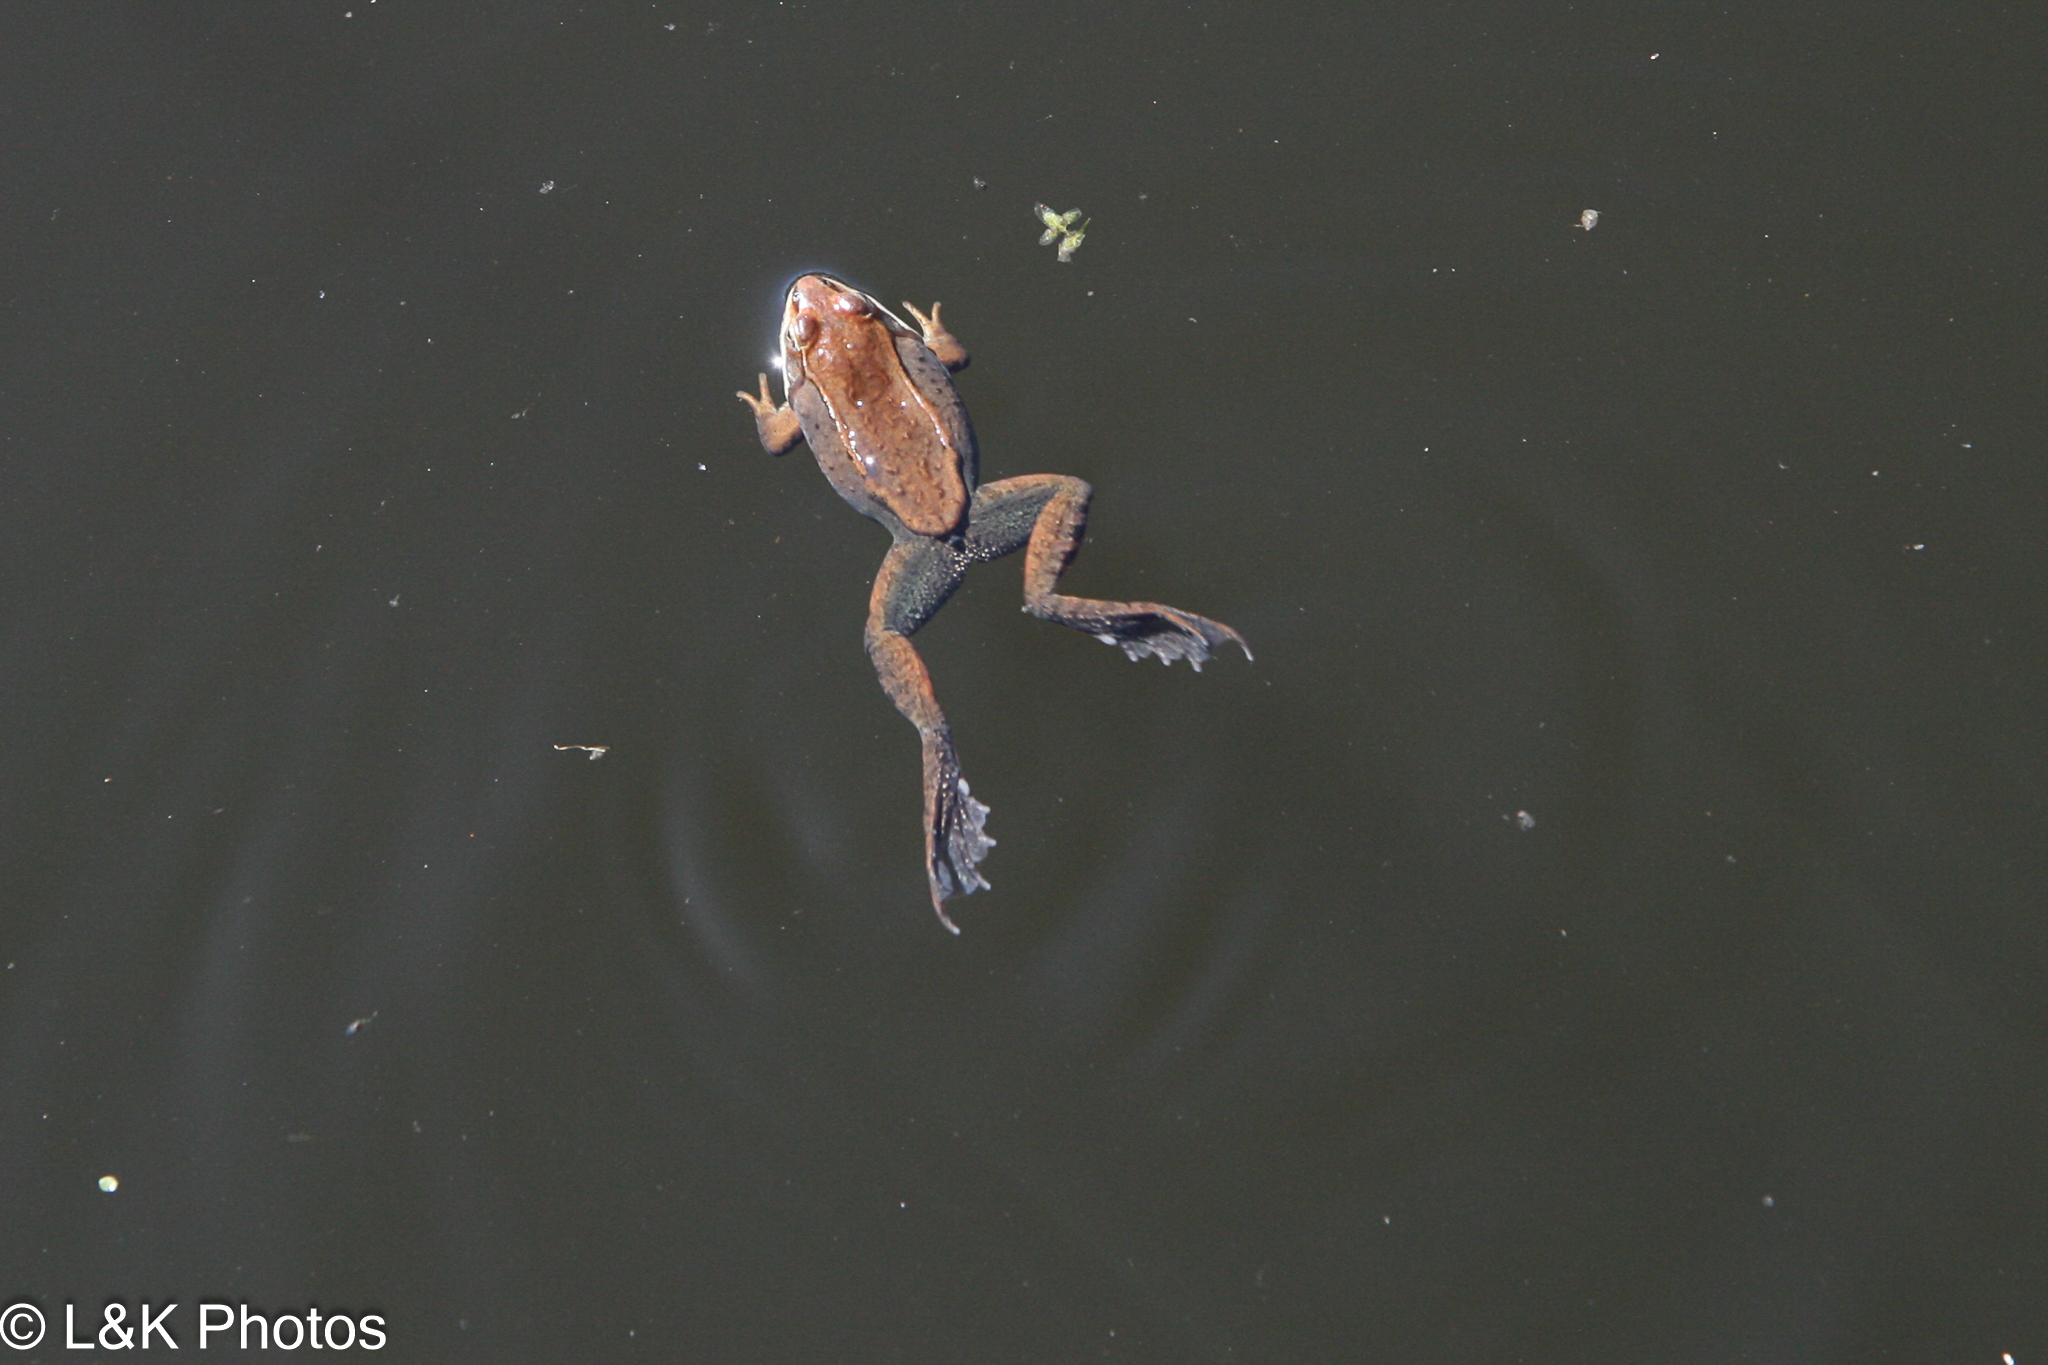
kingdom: Animalia
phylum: Chordata
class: Amphibia
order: Anura
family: Ranidae
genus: Lithobates
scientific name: Lithobates sylvaticus
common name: Wood frog
